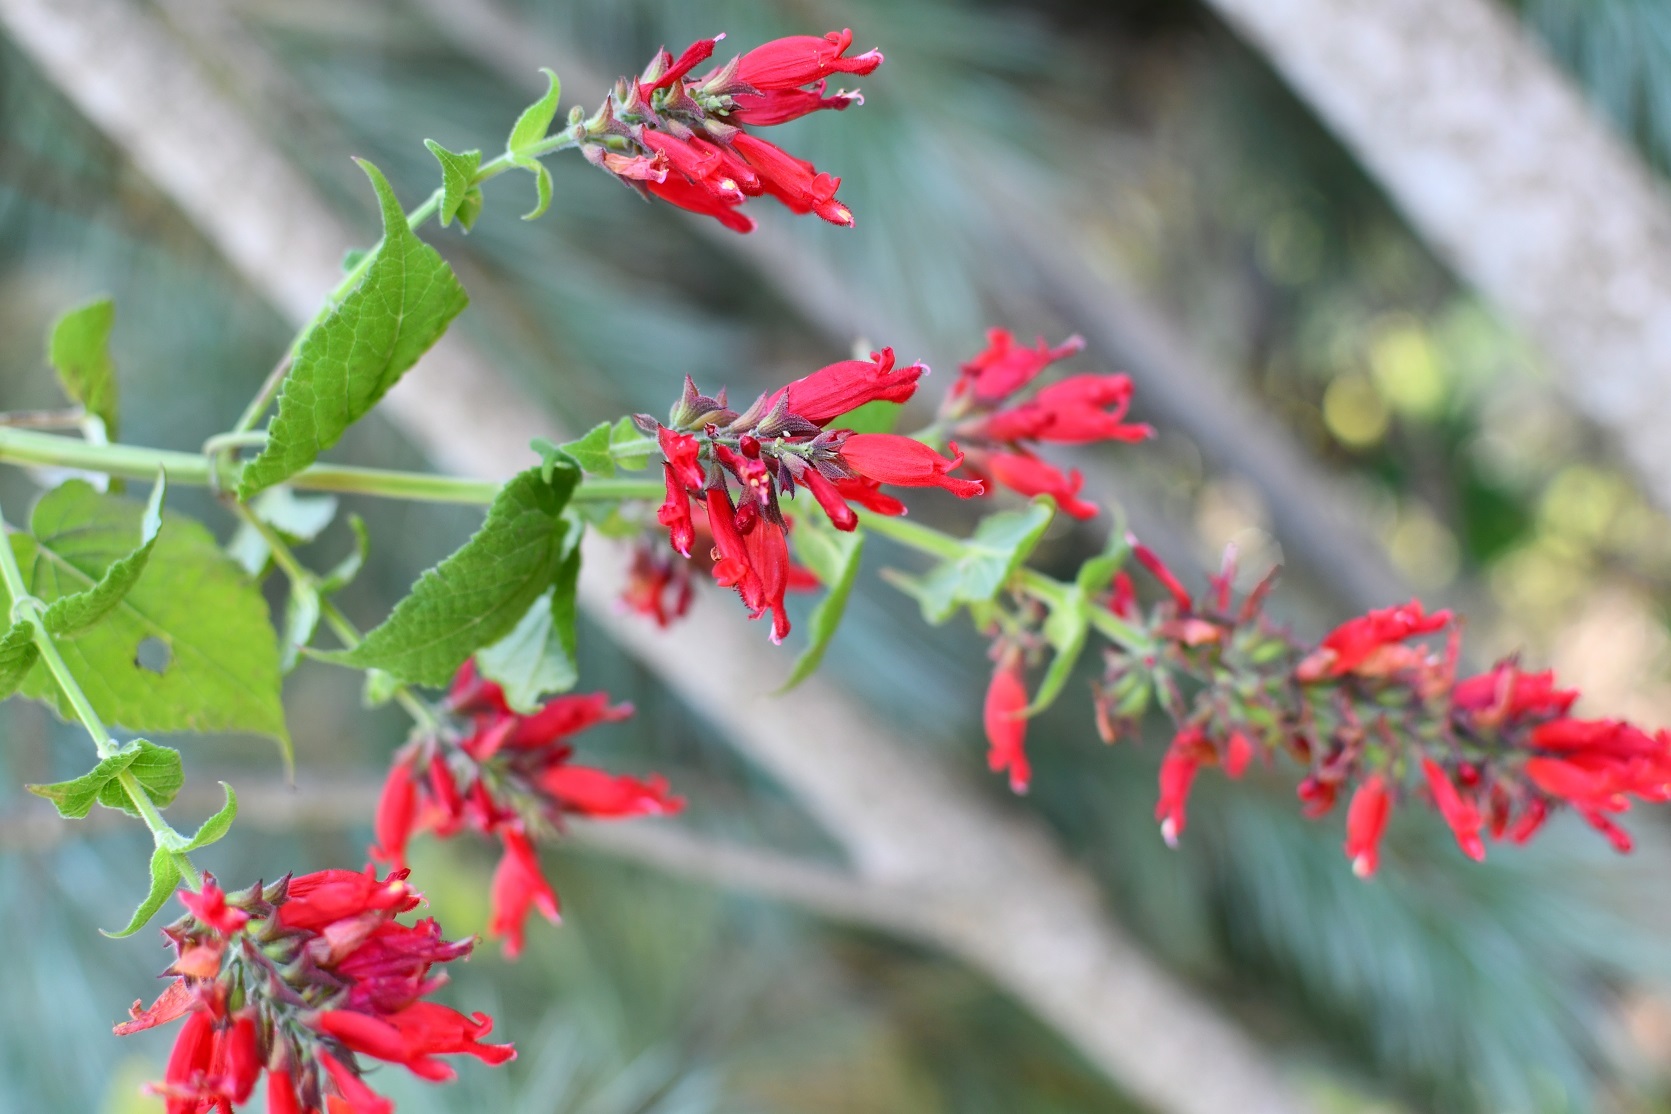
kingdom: Plantae
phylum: Tracheophyta
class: Magnoliopsida
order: Lamiales
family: Lamiaceae
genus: Salvia
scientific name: Salvia holwayi
